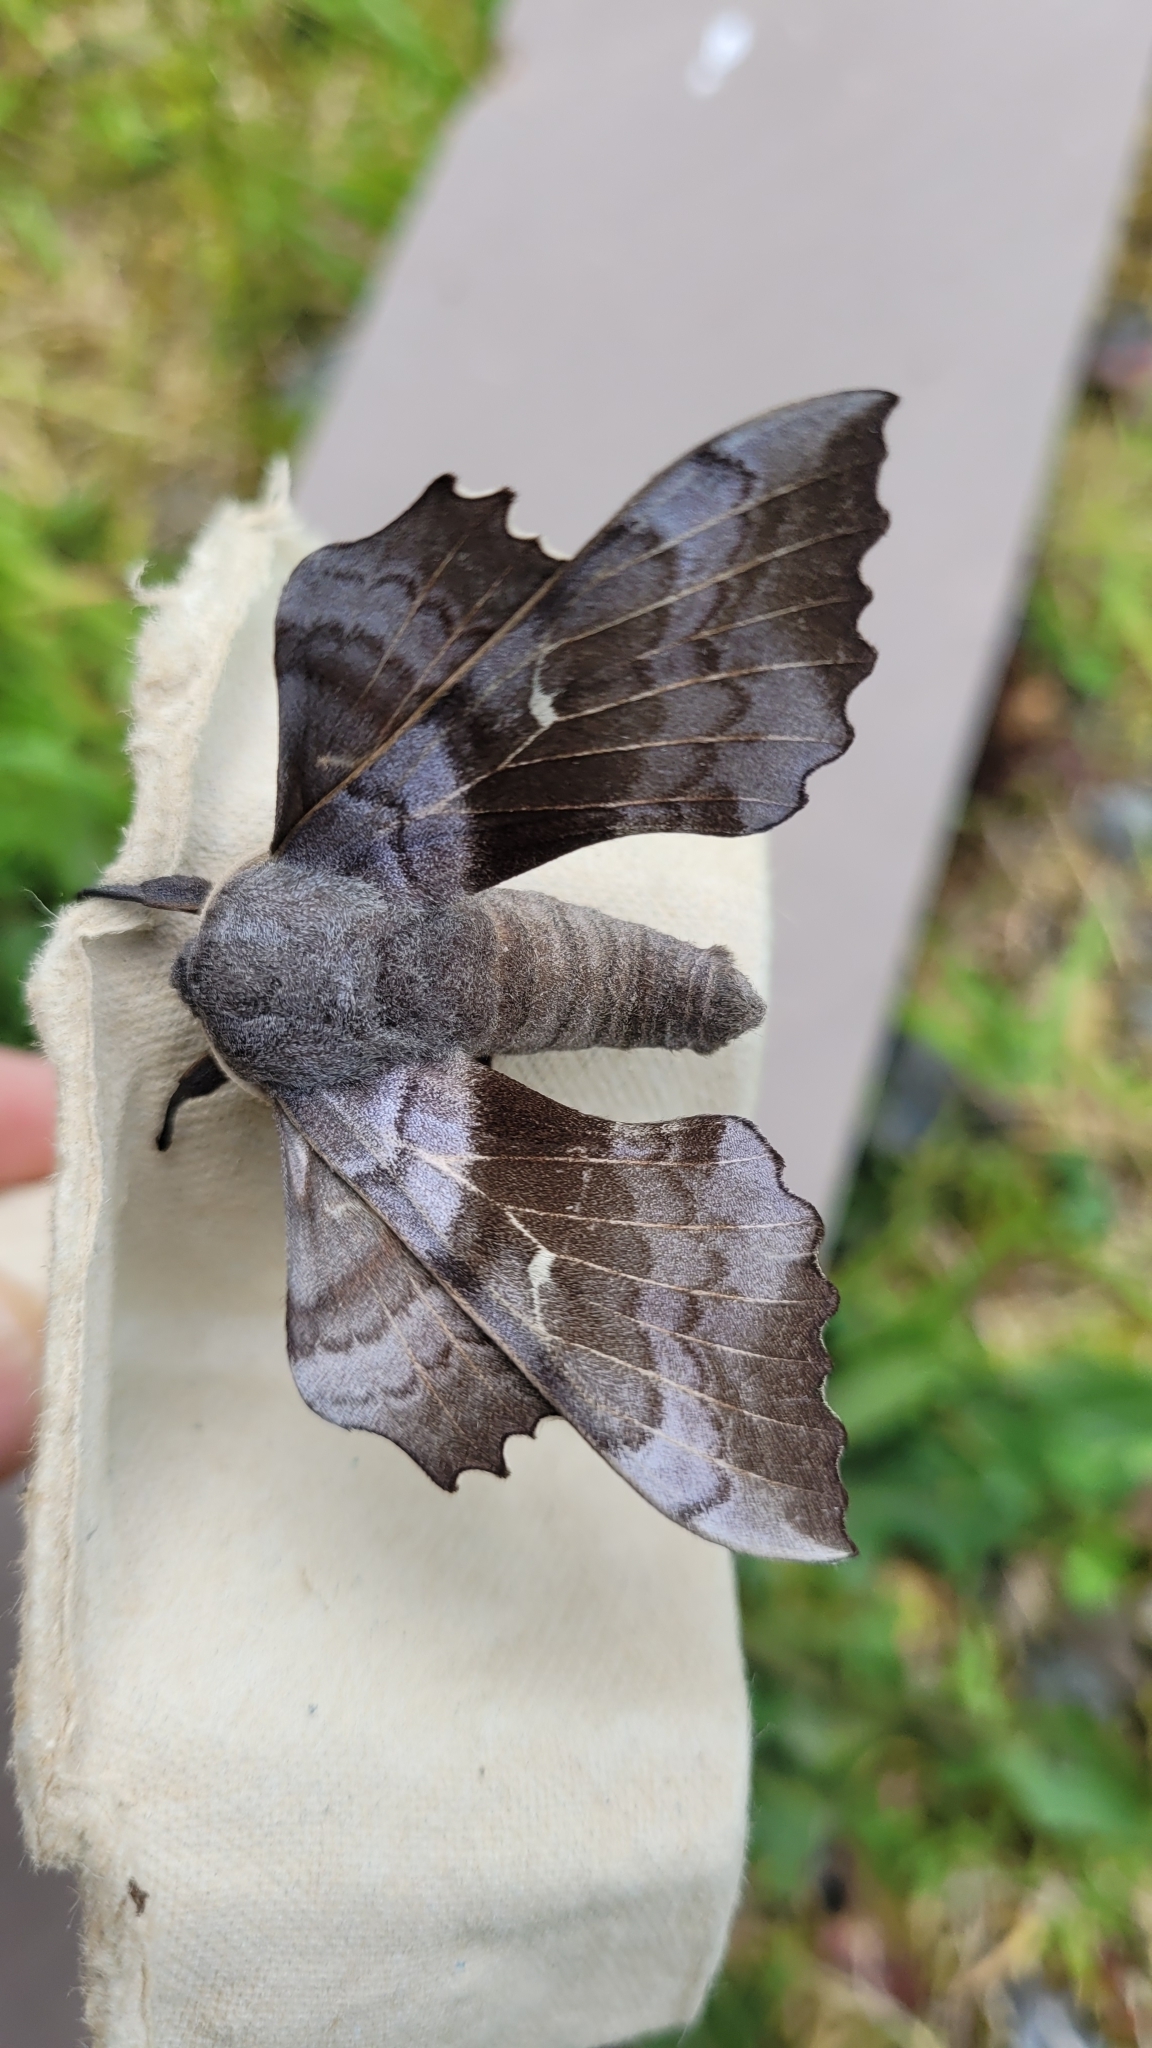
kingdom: Animalia
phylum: Arthropoda
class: Insecta
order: Lepidoptera
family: Sphingidae
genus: Laothoe
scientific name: Laothoe populi
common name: Poplar hawk-moth
